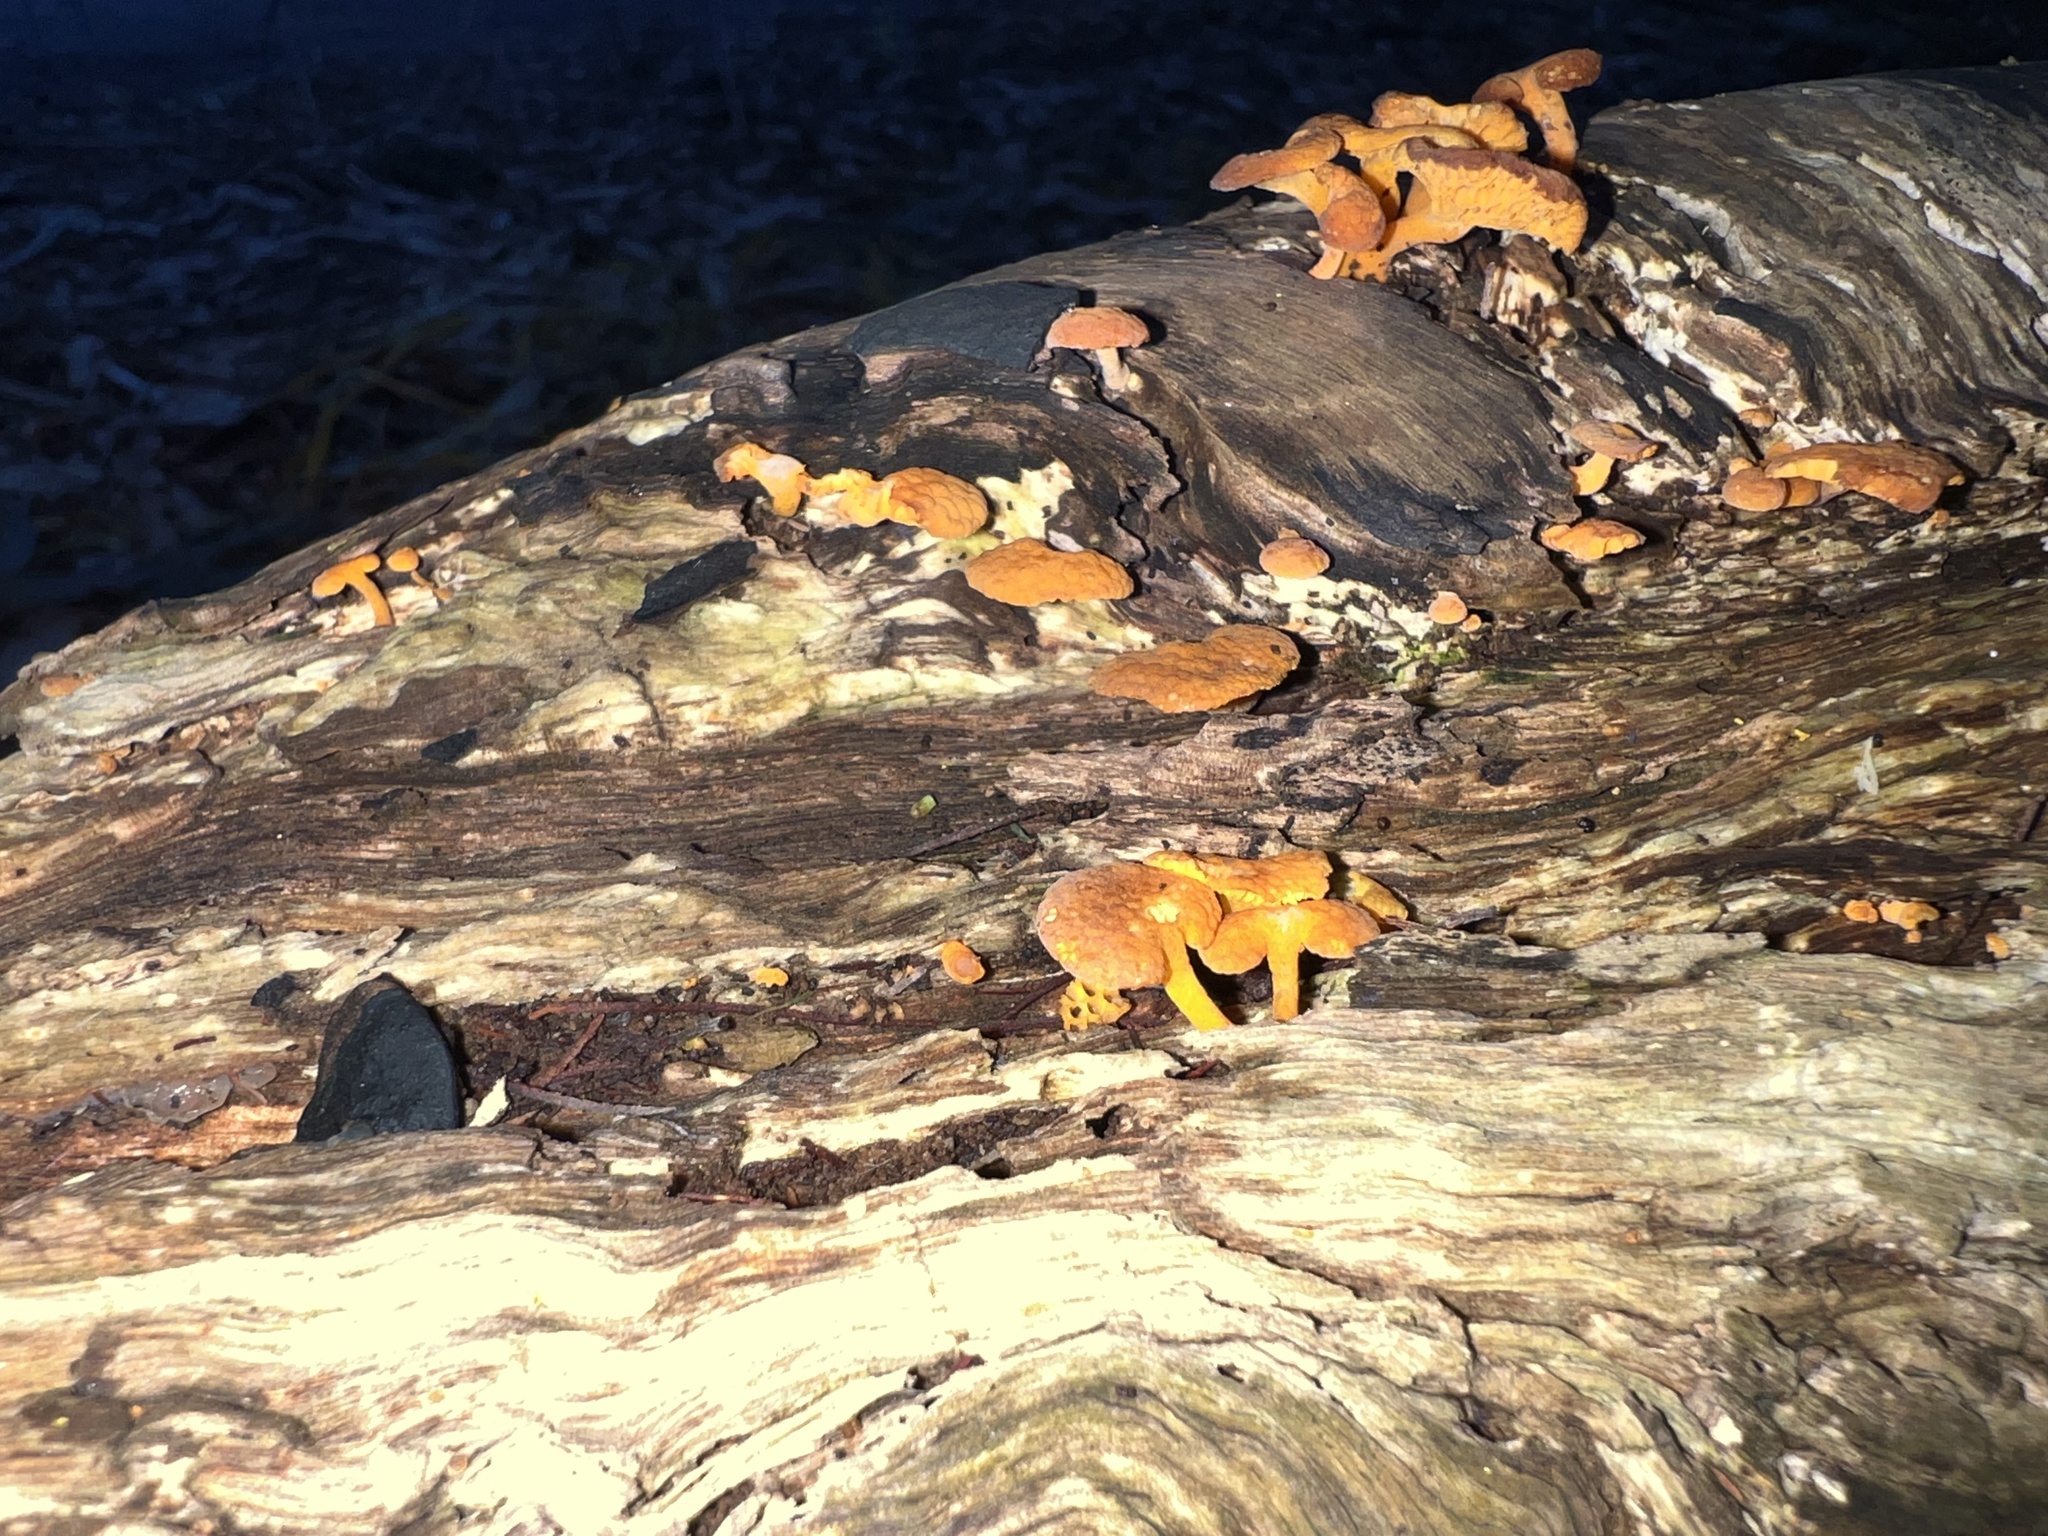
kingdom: Fungi
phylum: Basidiomycota
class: Agaricomycetes
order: Agaricales
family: Mycenaceae
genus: Favolaschia
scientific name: Favolaschia claudopus
